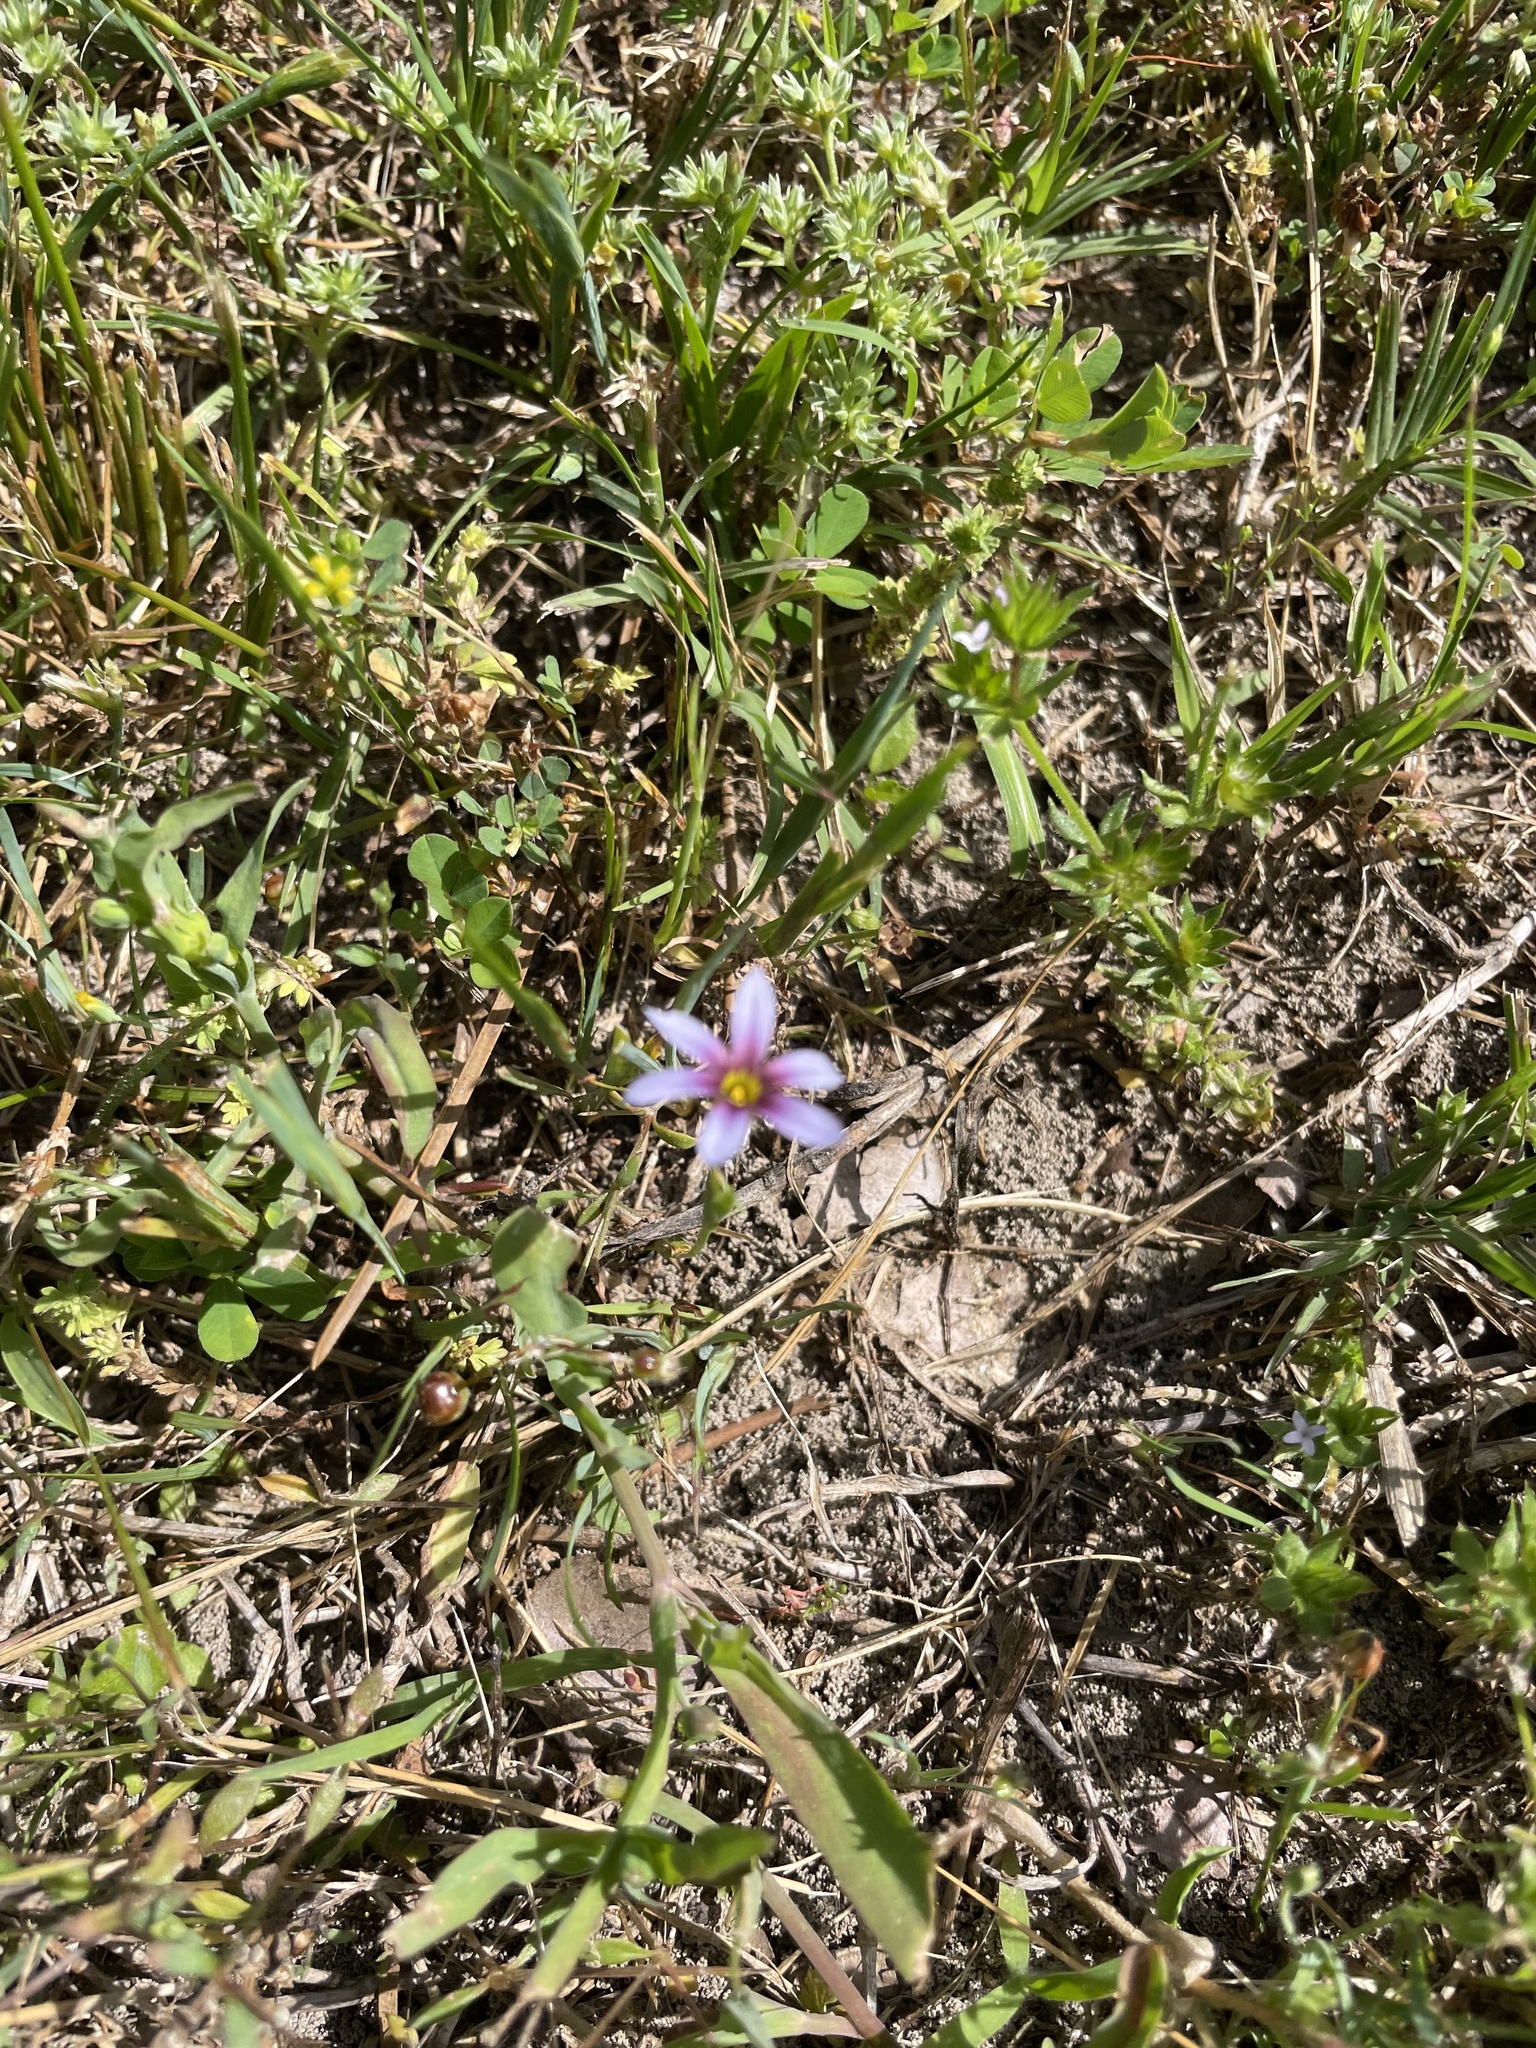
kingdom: Plantae
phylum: Tracheophyta
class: Liliopsida
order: Asparagales
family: Iridaceae
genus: Sisyrinchium
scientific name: Sisyrinchium micranthum
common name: Bermuda pigroot
